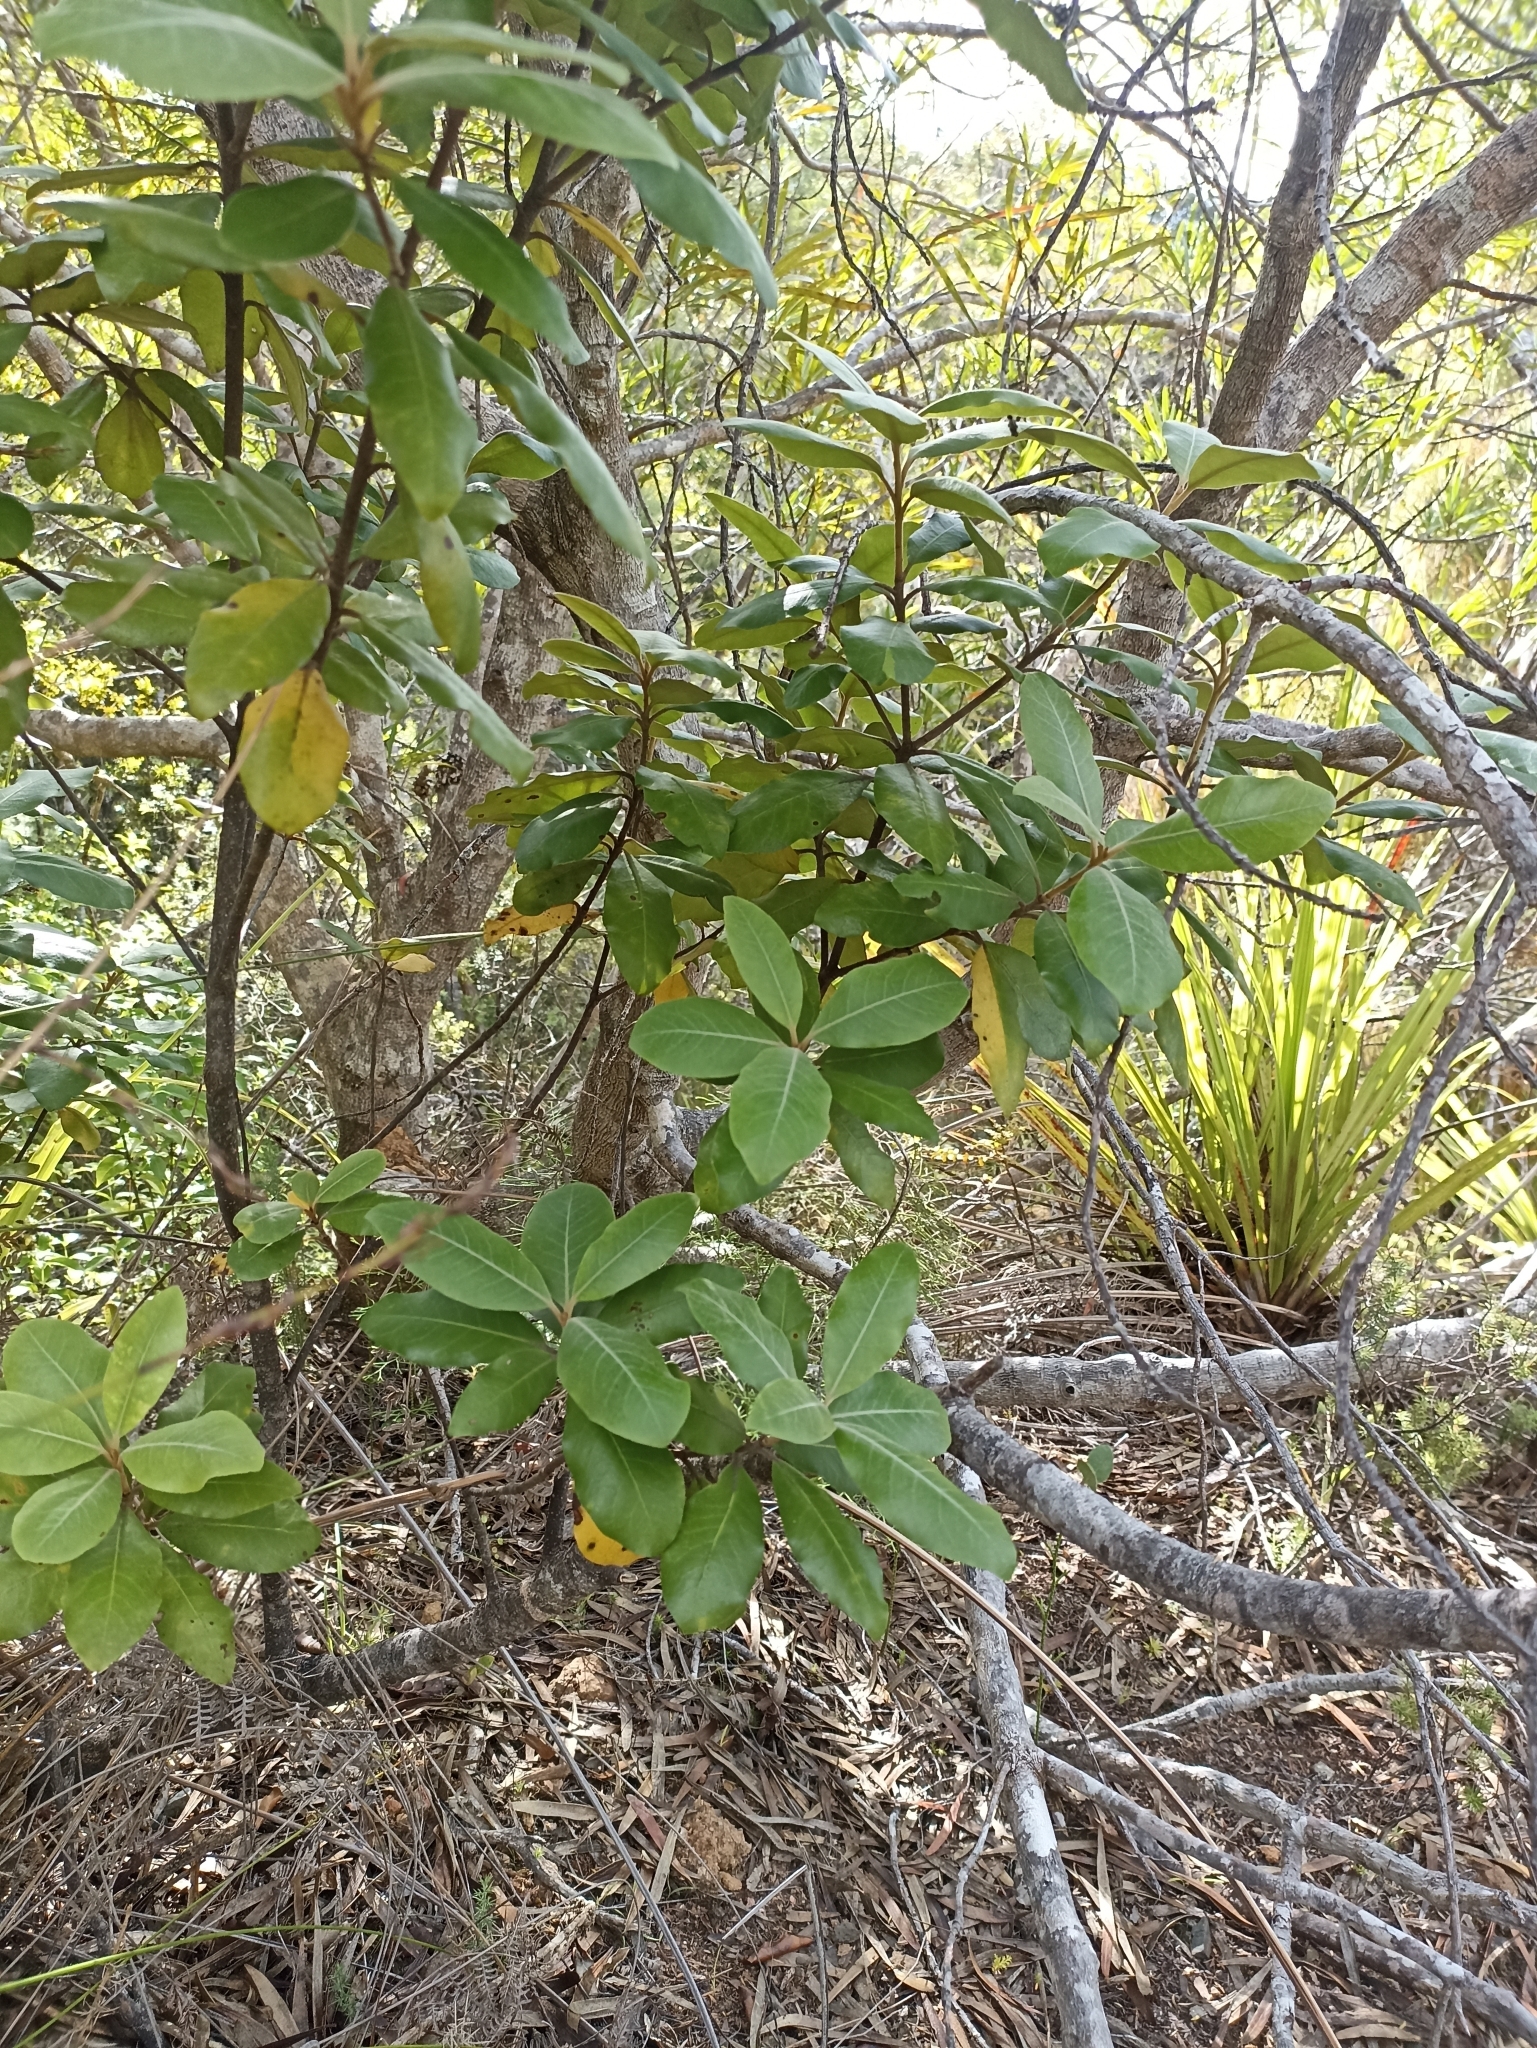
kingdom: Plantae
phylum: Tracheophyta
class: Magnoliopsida
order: Apiales
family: Pittosporaceae
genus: Pittosporum
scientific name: Pittosporum ellipticum
